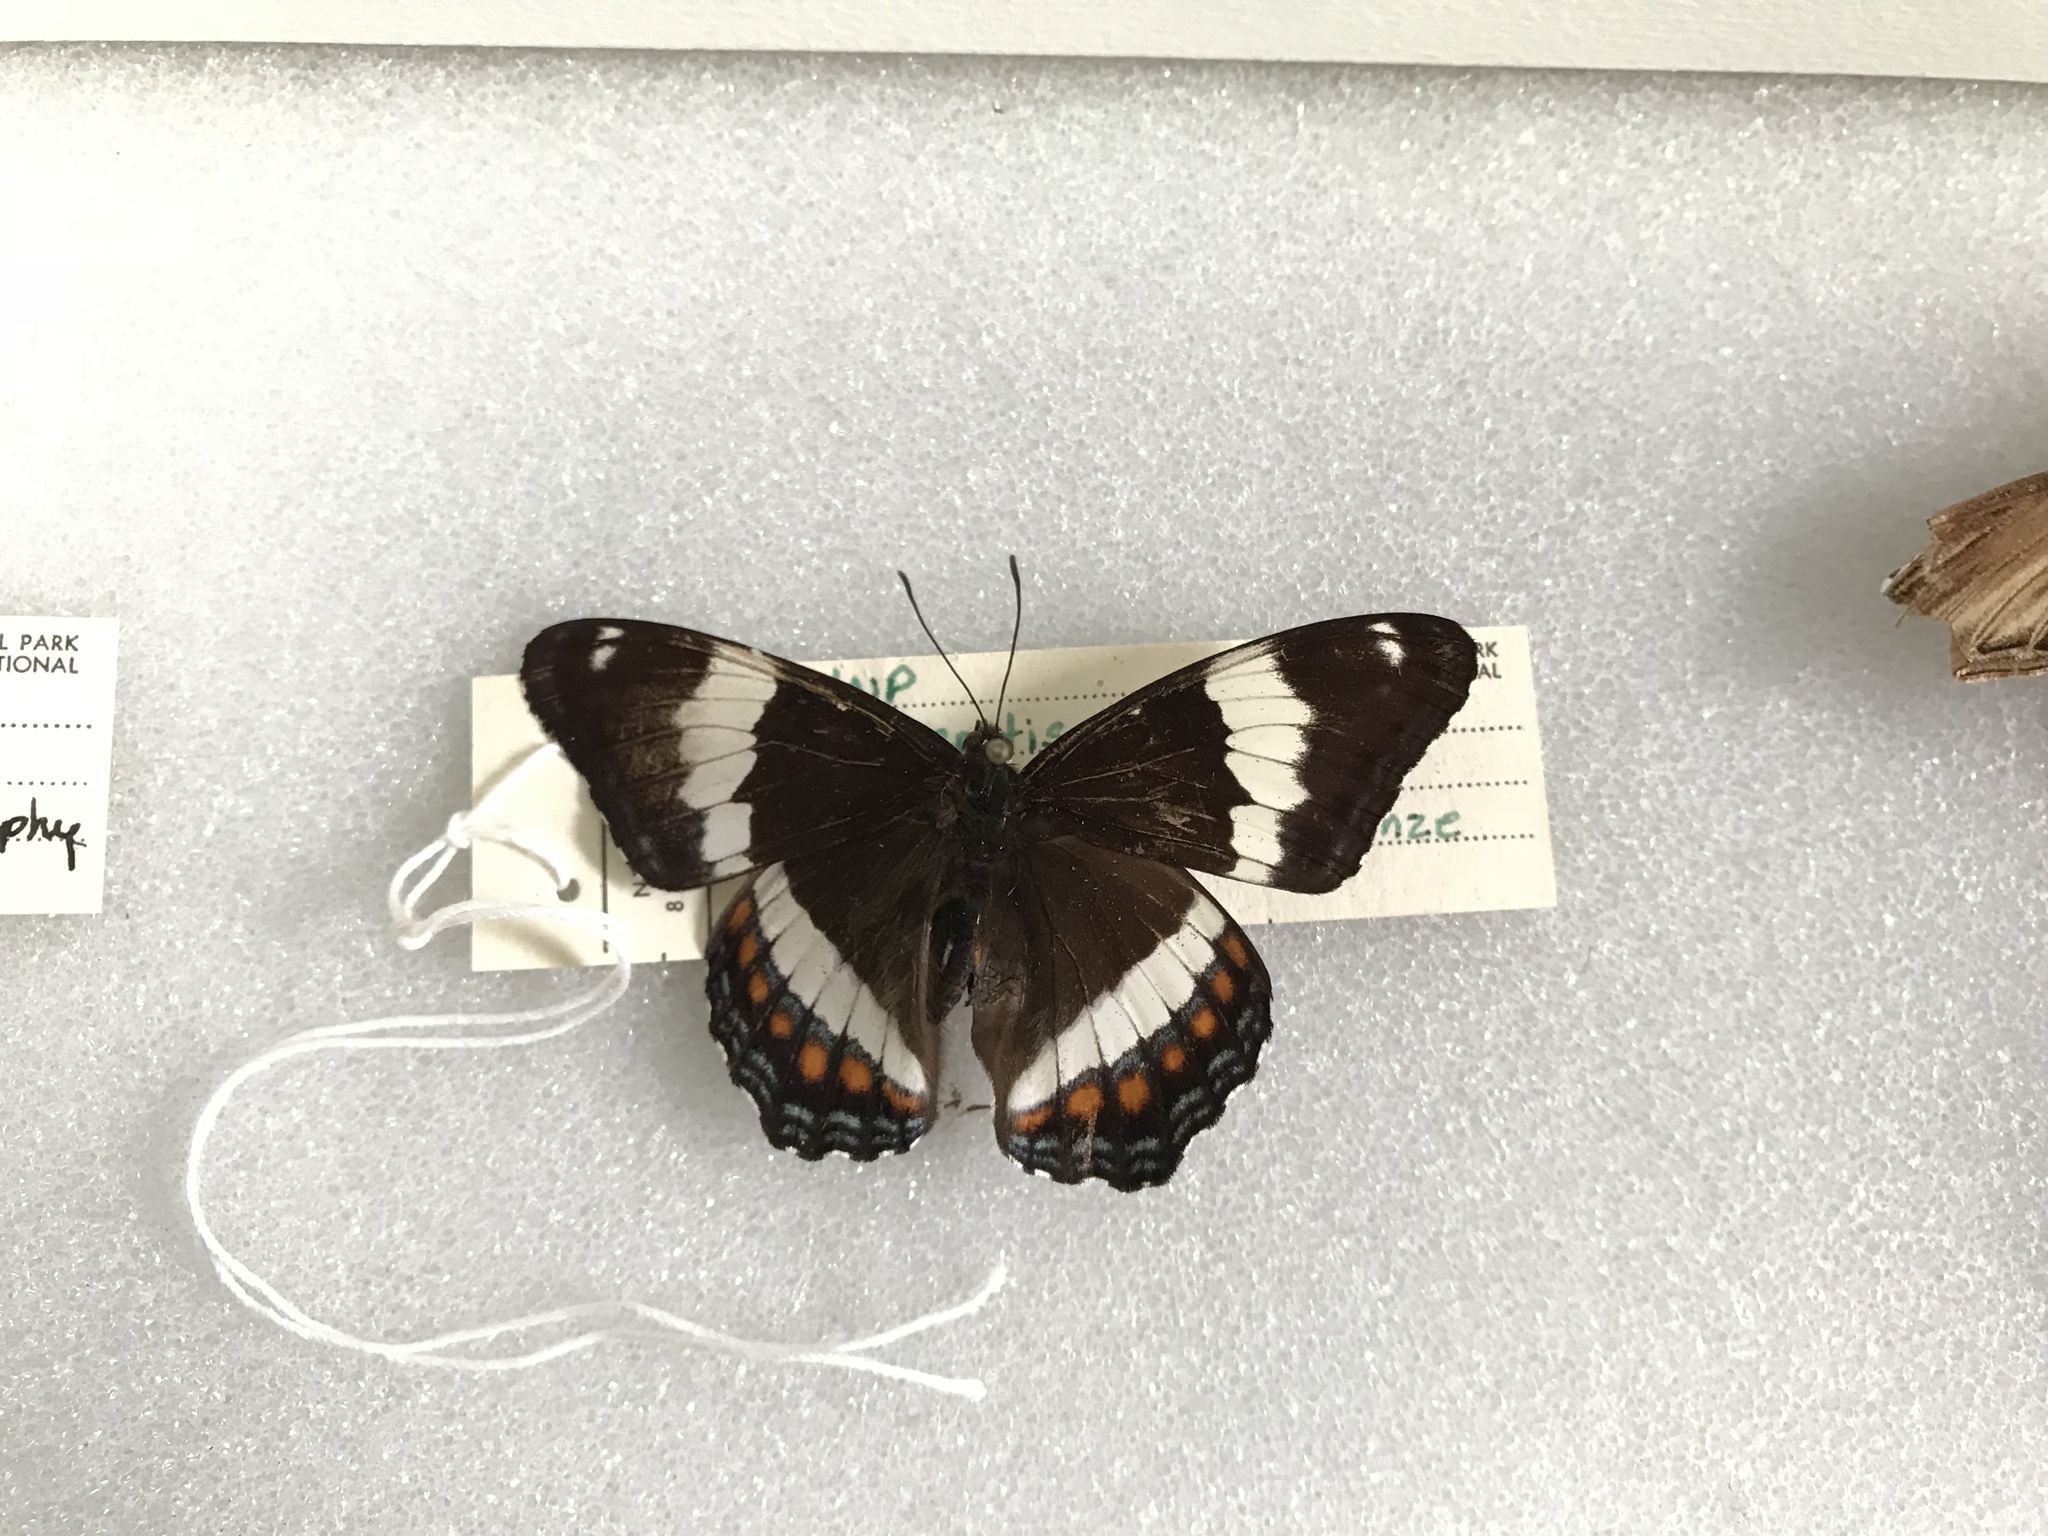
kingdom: Animalia
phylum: Arthropoda
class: Insecta
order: Lepidoptera
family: Nymphalidae
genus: Limenitis
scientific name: Limenitis arthemis
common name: Red-spotted admiral
